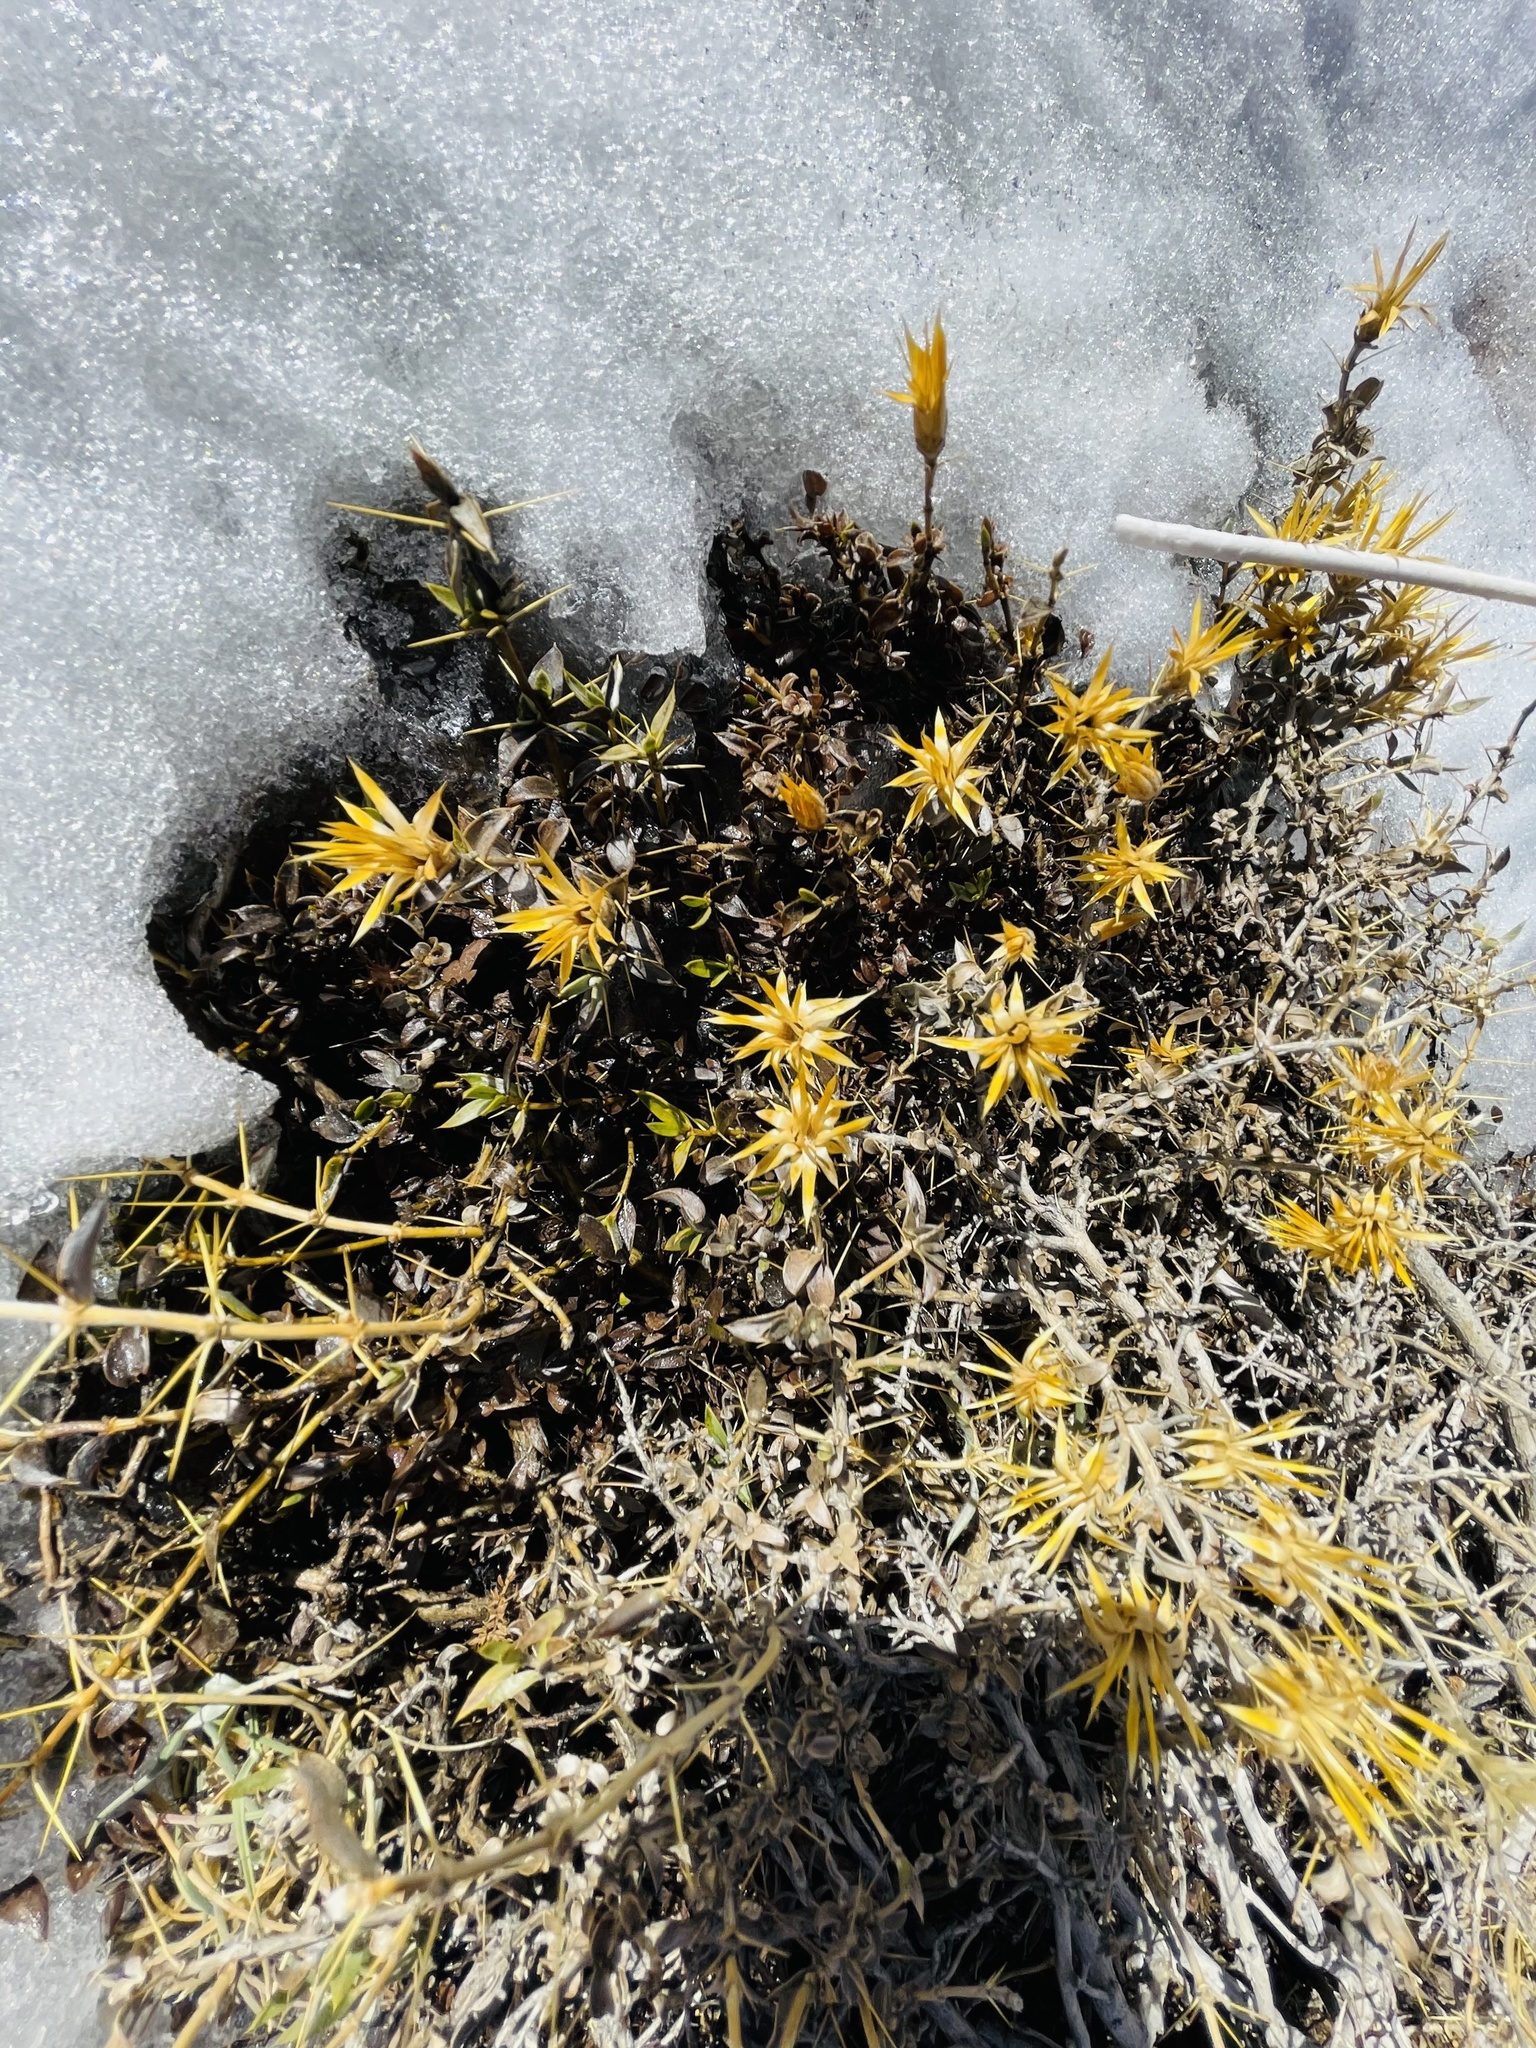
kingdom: Plantae
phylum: Tracheophyta
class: Magnoliopsida
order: Asterales
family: Asteraceae
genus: Chuquiraga
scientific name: Chuquiraga oppositifolia
